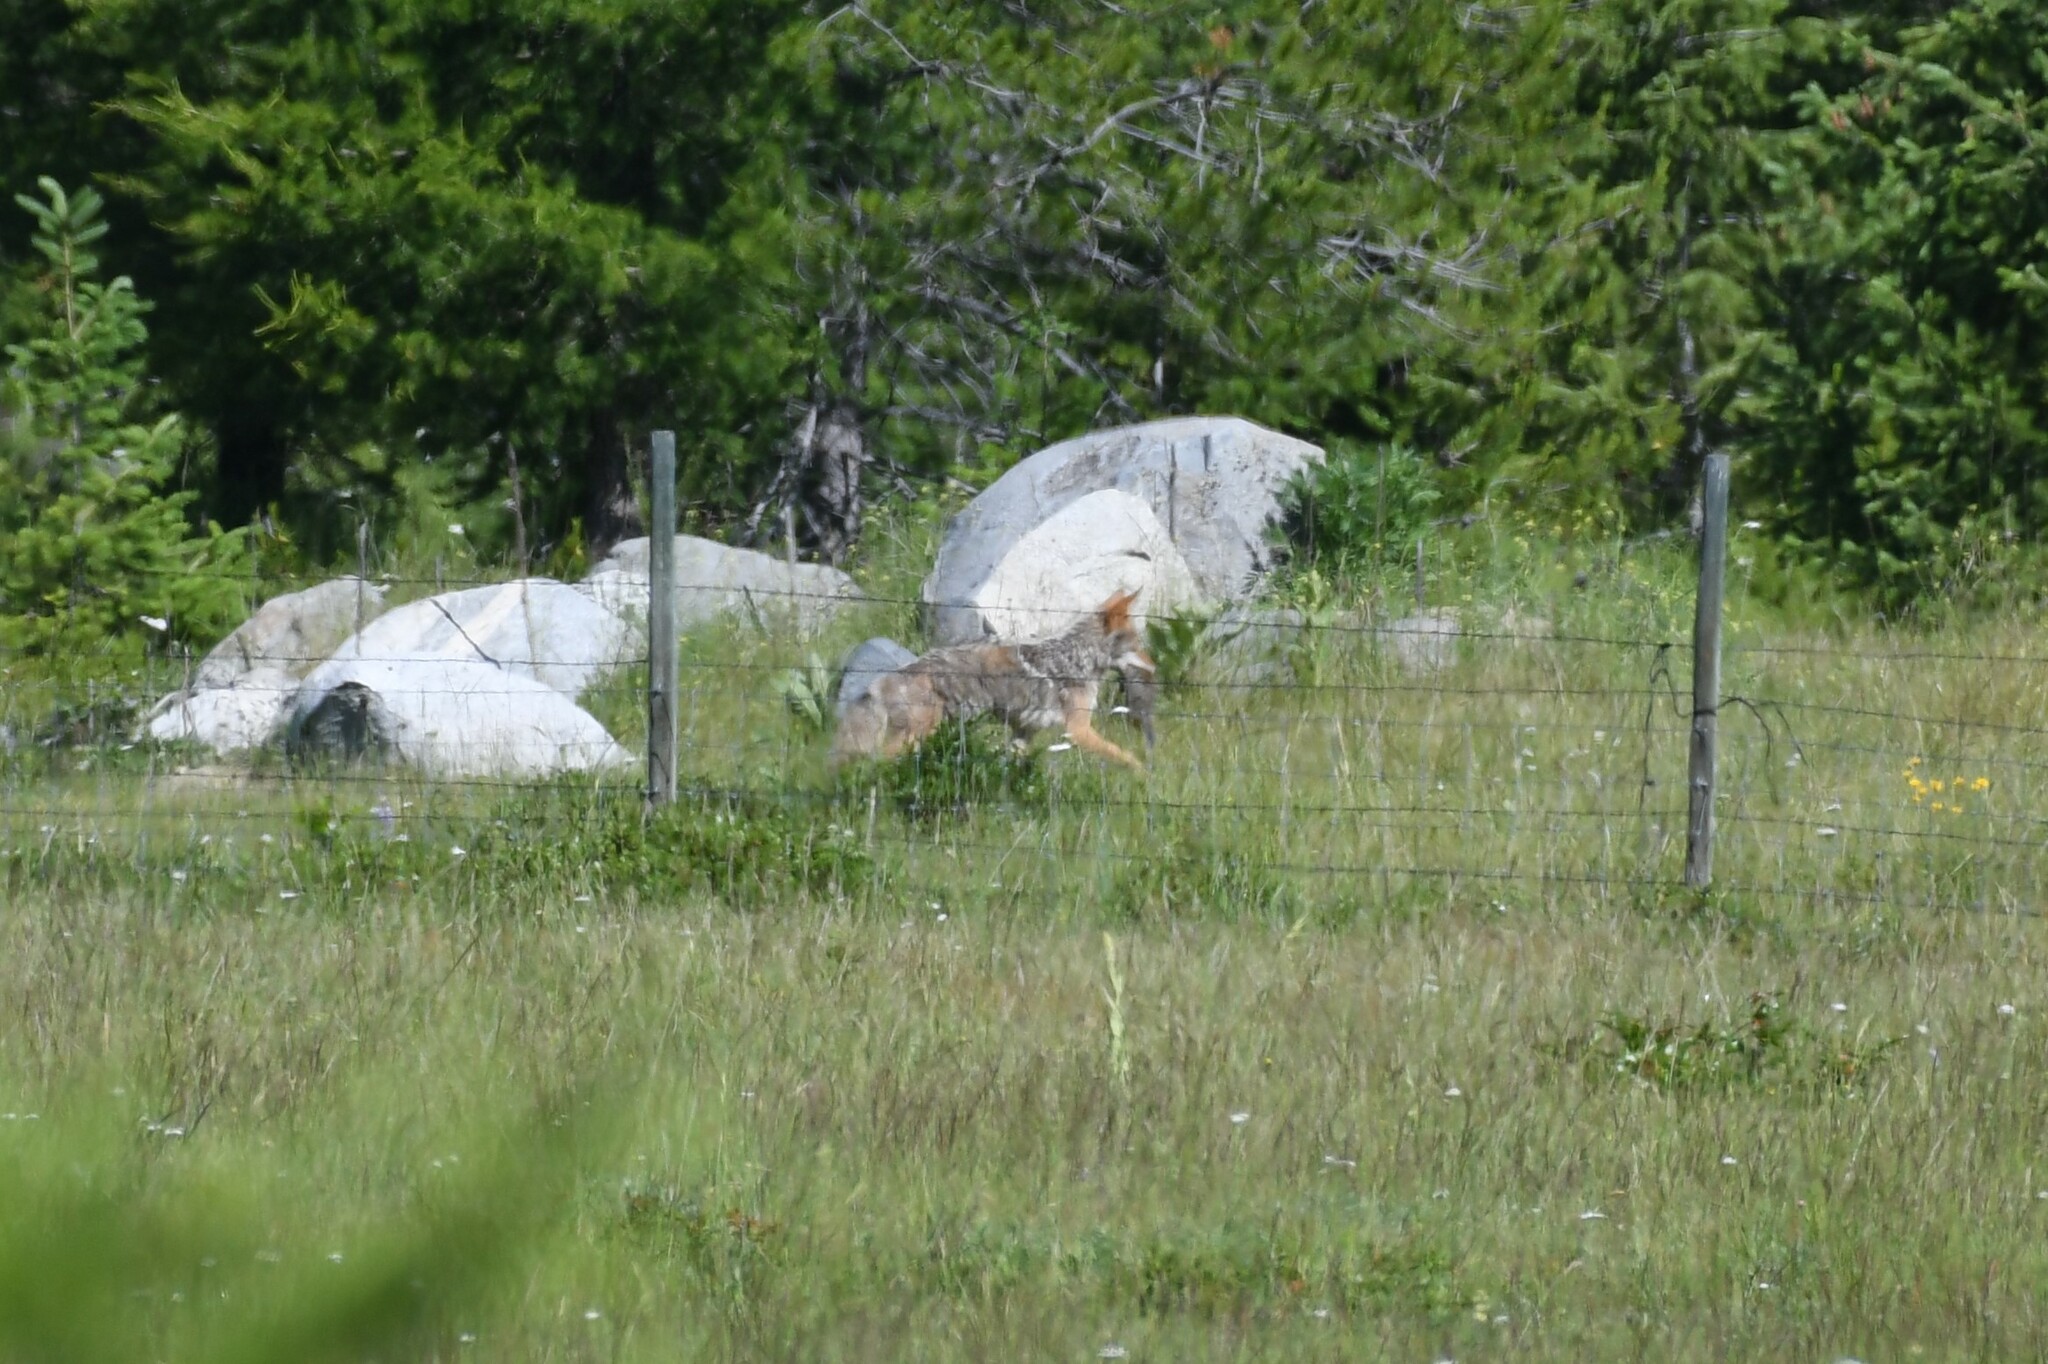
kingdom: Animalia
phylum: Chordata
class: Mammalia
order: Carnivora
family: Canidae
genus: Canis
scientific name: Canis latrans
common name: Coyote
